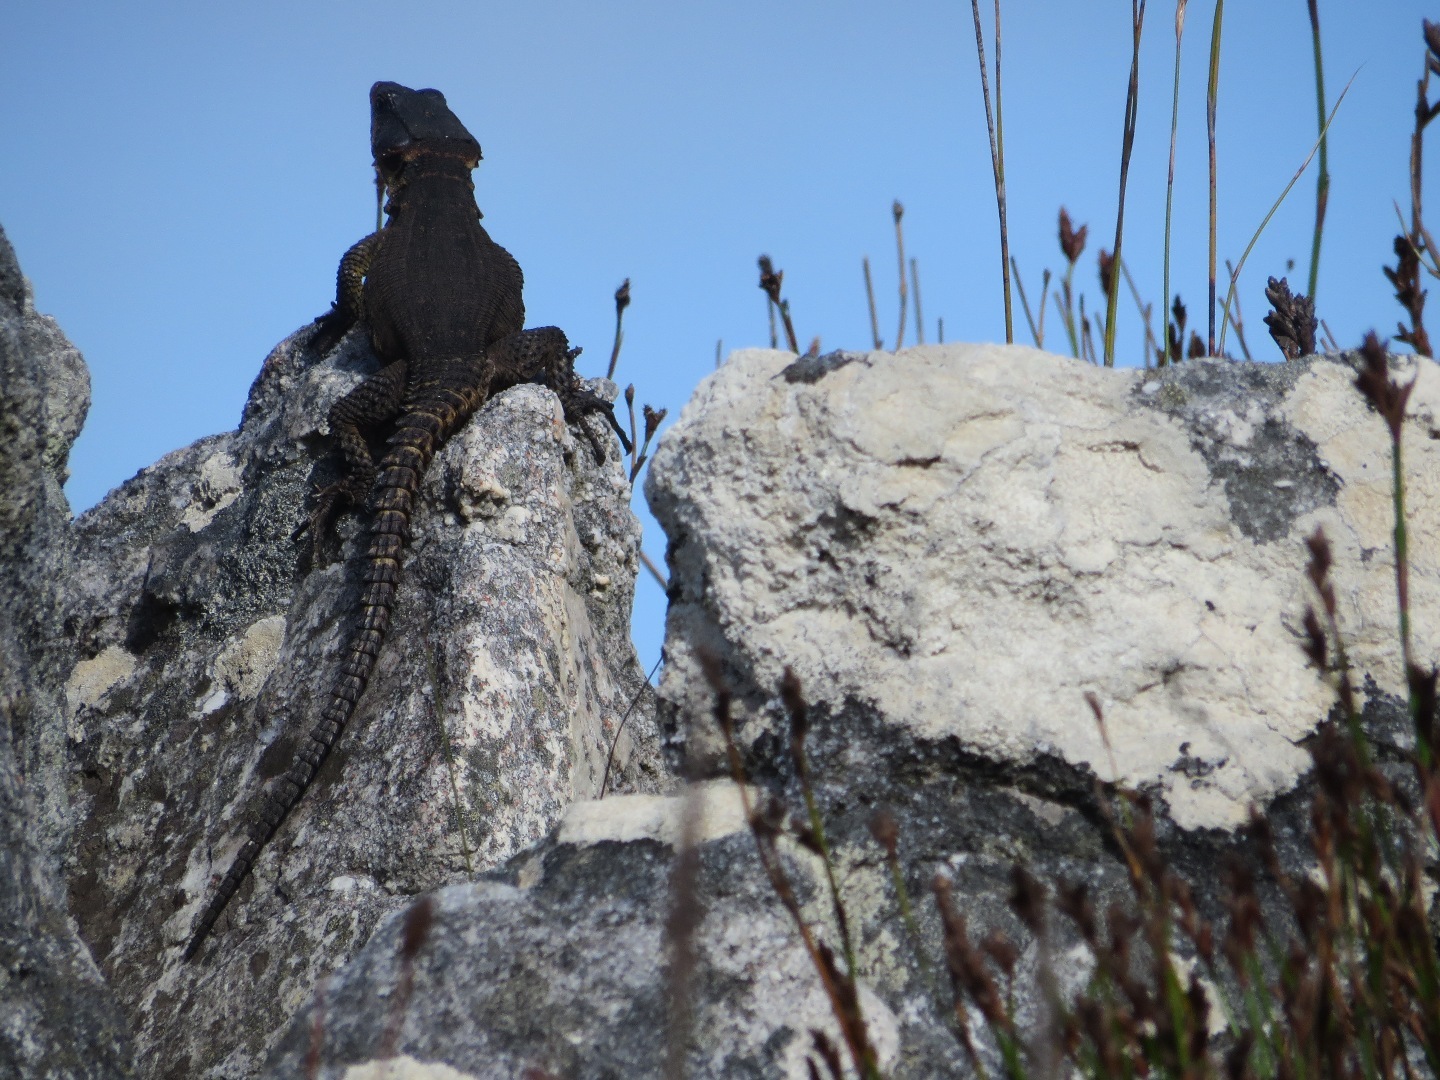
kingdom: Animalia
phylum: Chordata
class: Squamata
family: Cordylidae
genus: Pseudocordylus
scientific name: Pseudocordylus microlepidotus
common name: Cape crag lizard
